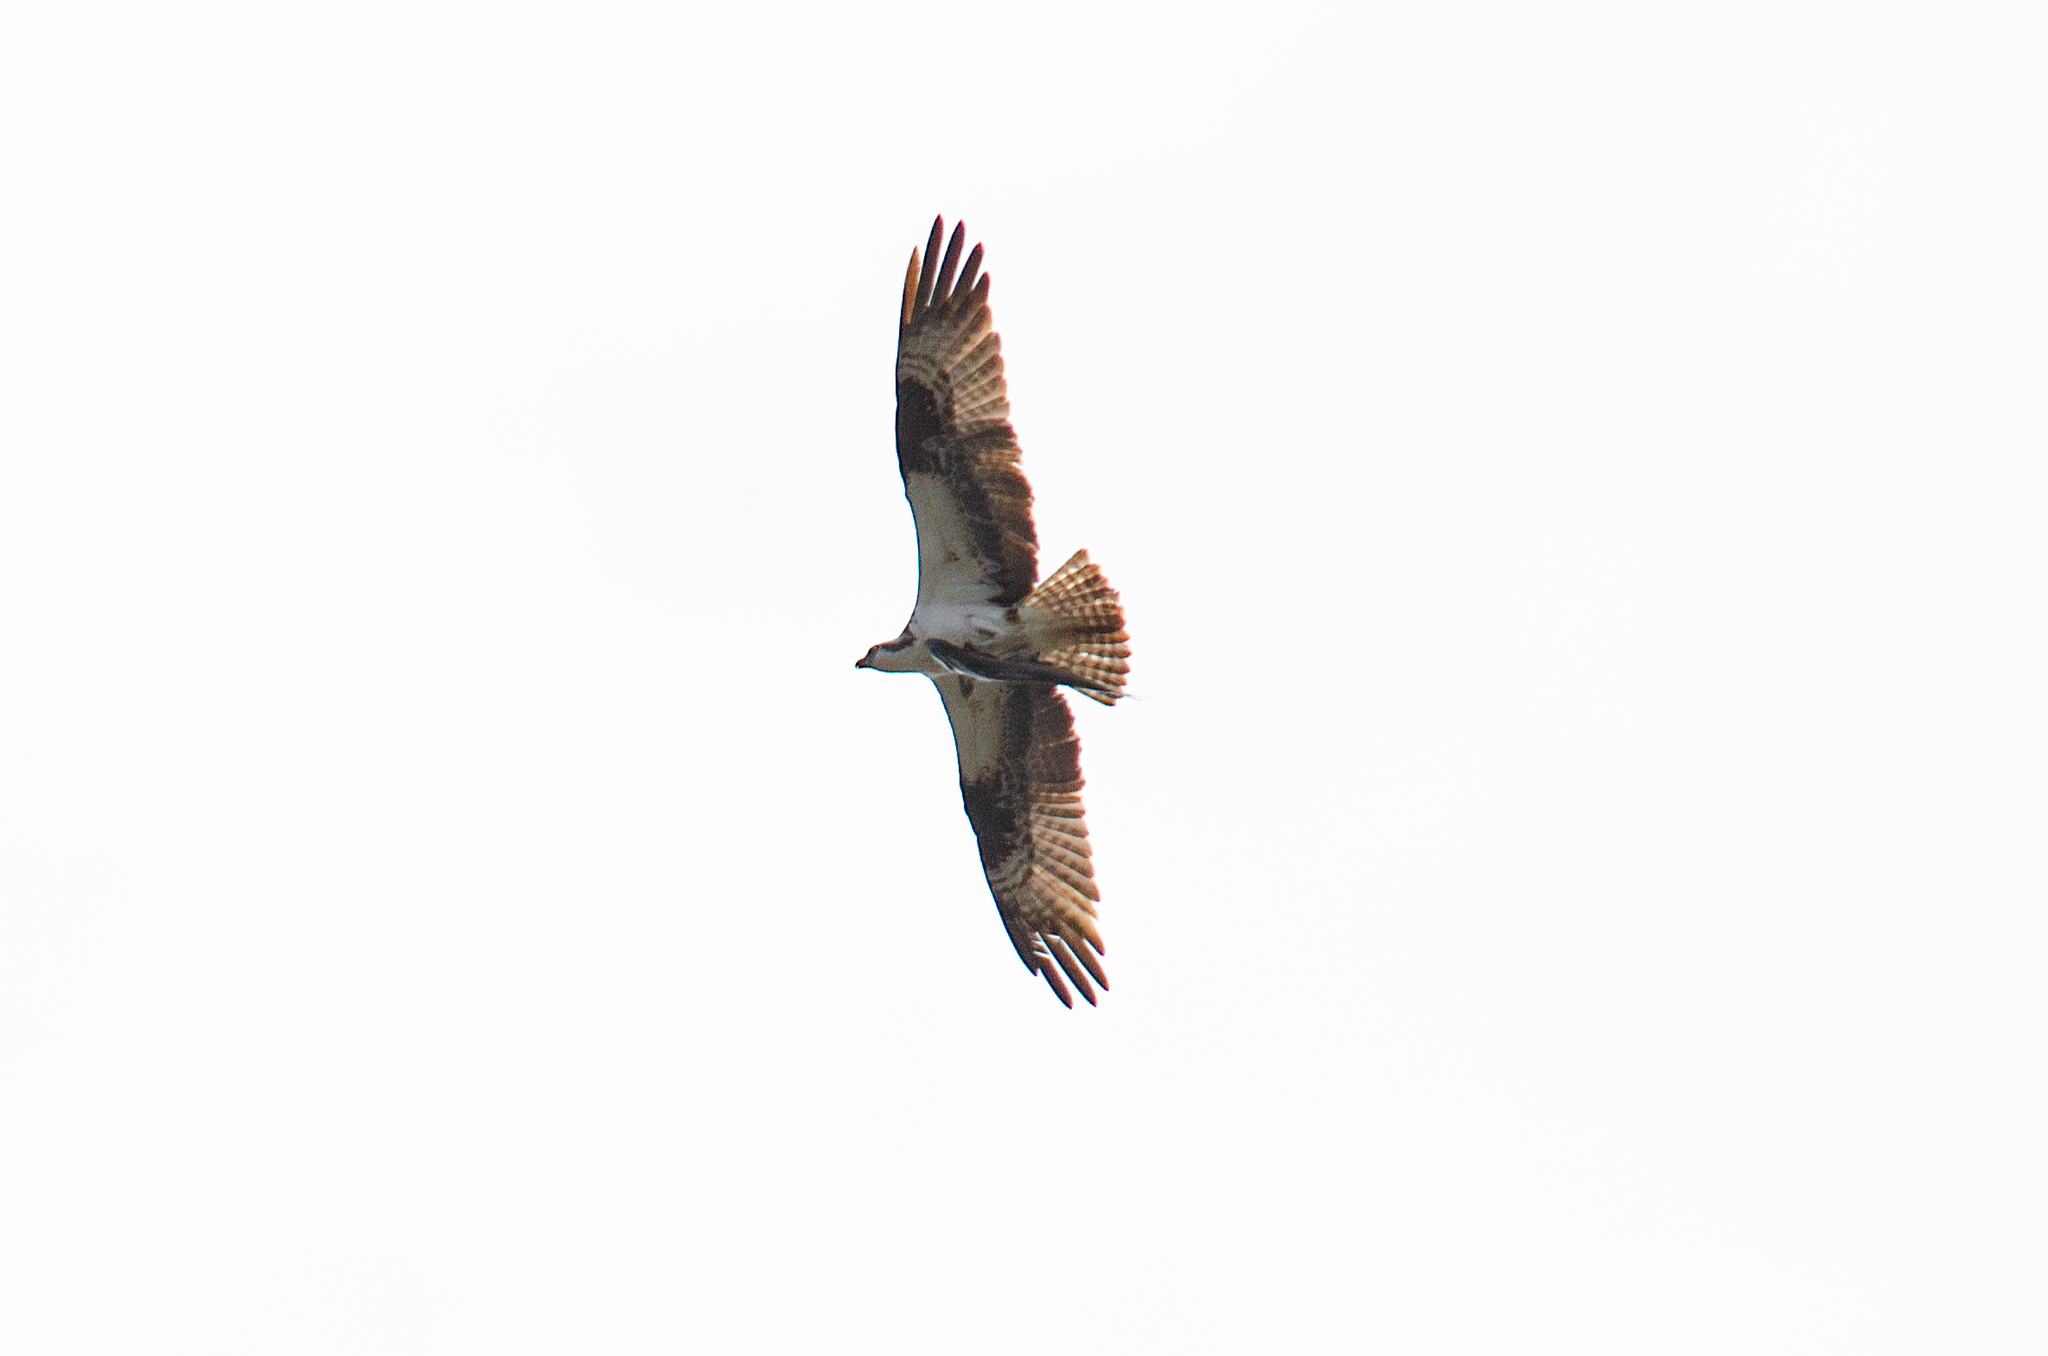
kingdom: Animalia
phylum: Chordata
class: Aves
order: Accipitriformes
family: Pandionidae
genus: Pandion
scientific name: Pandion haliaetus
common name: Osprey
